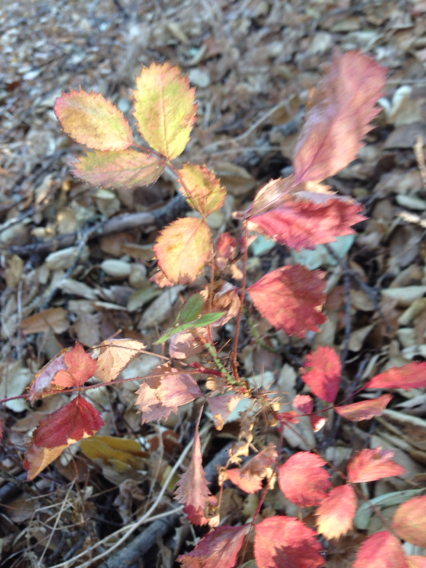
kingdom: Plantae
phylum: Tracheophyta
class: Magnoliopsida
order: Rosales
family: Rosaceae
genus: Rosa
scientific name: Rosa gymnocarpa
